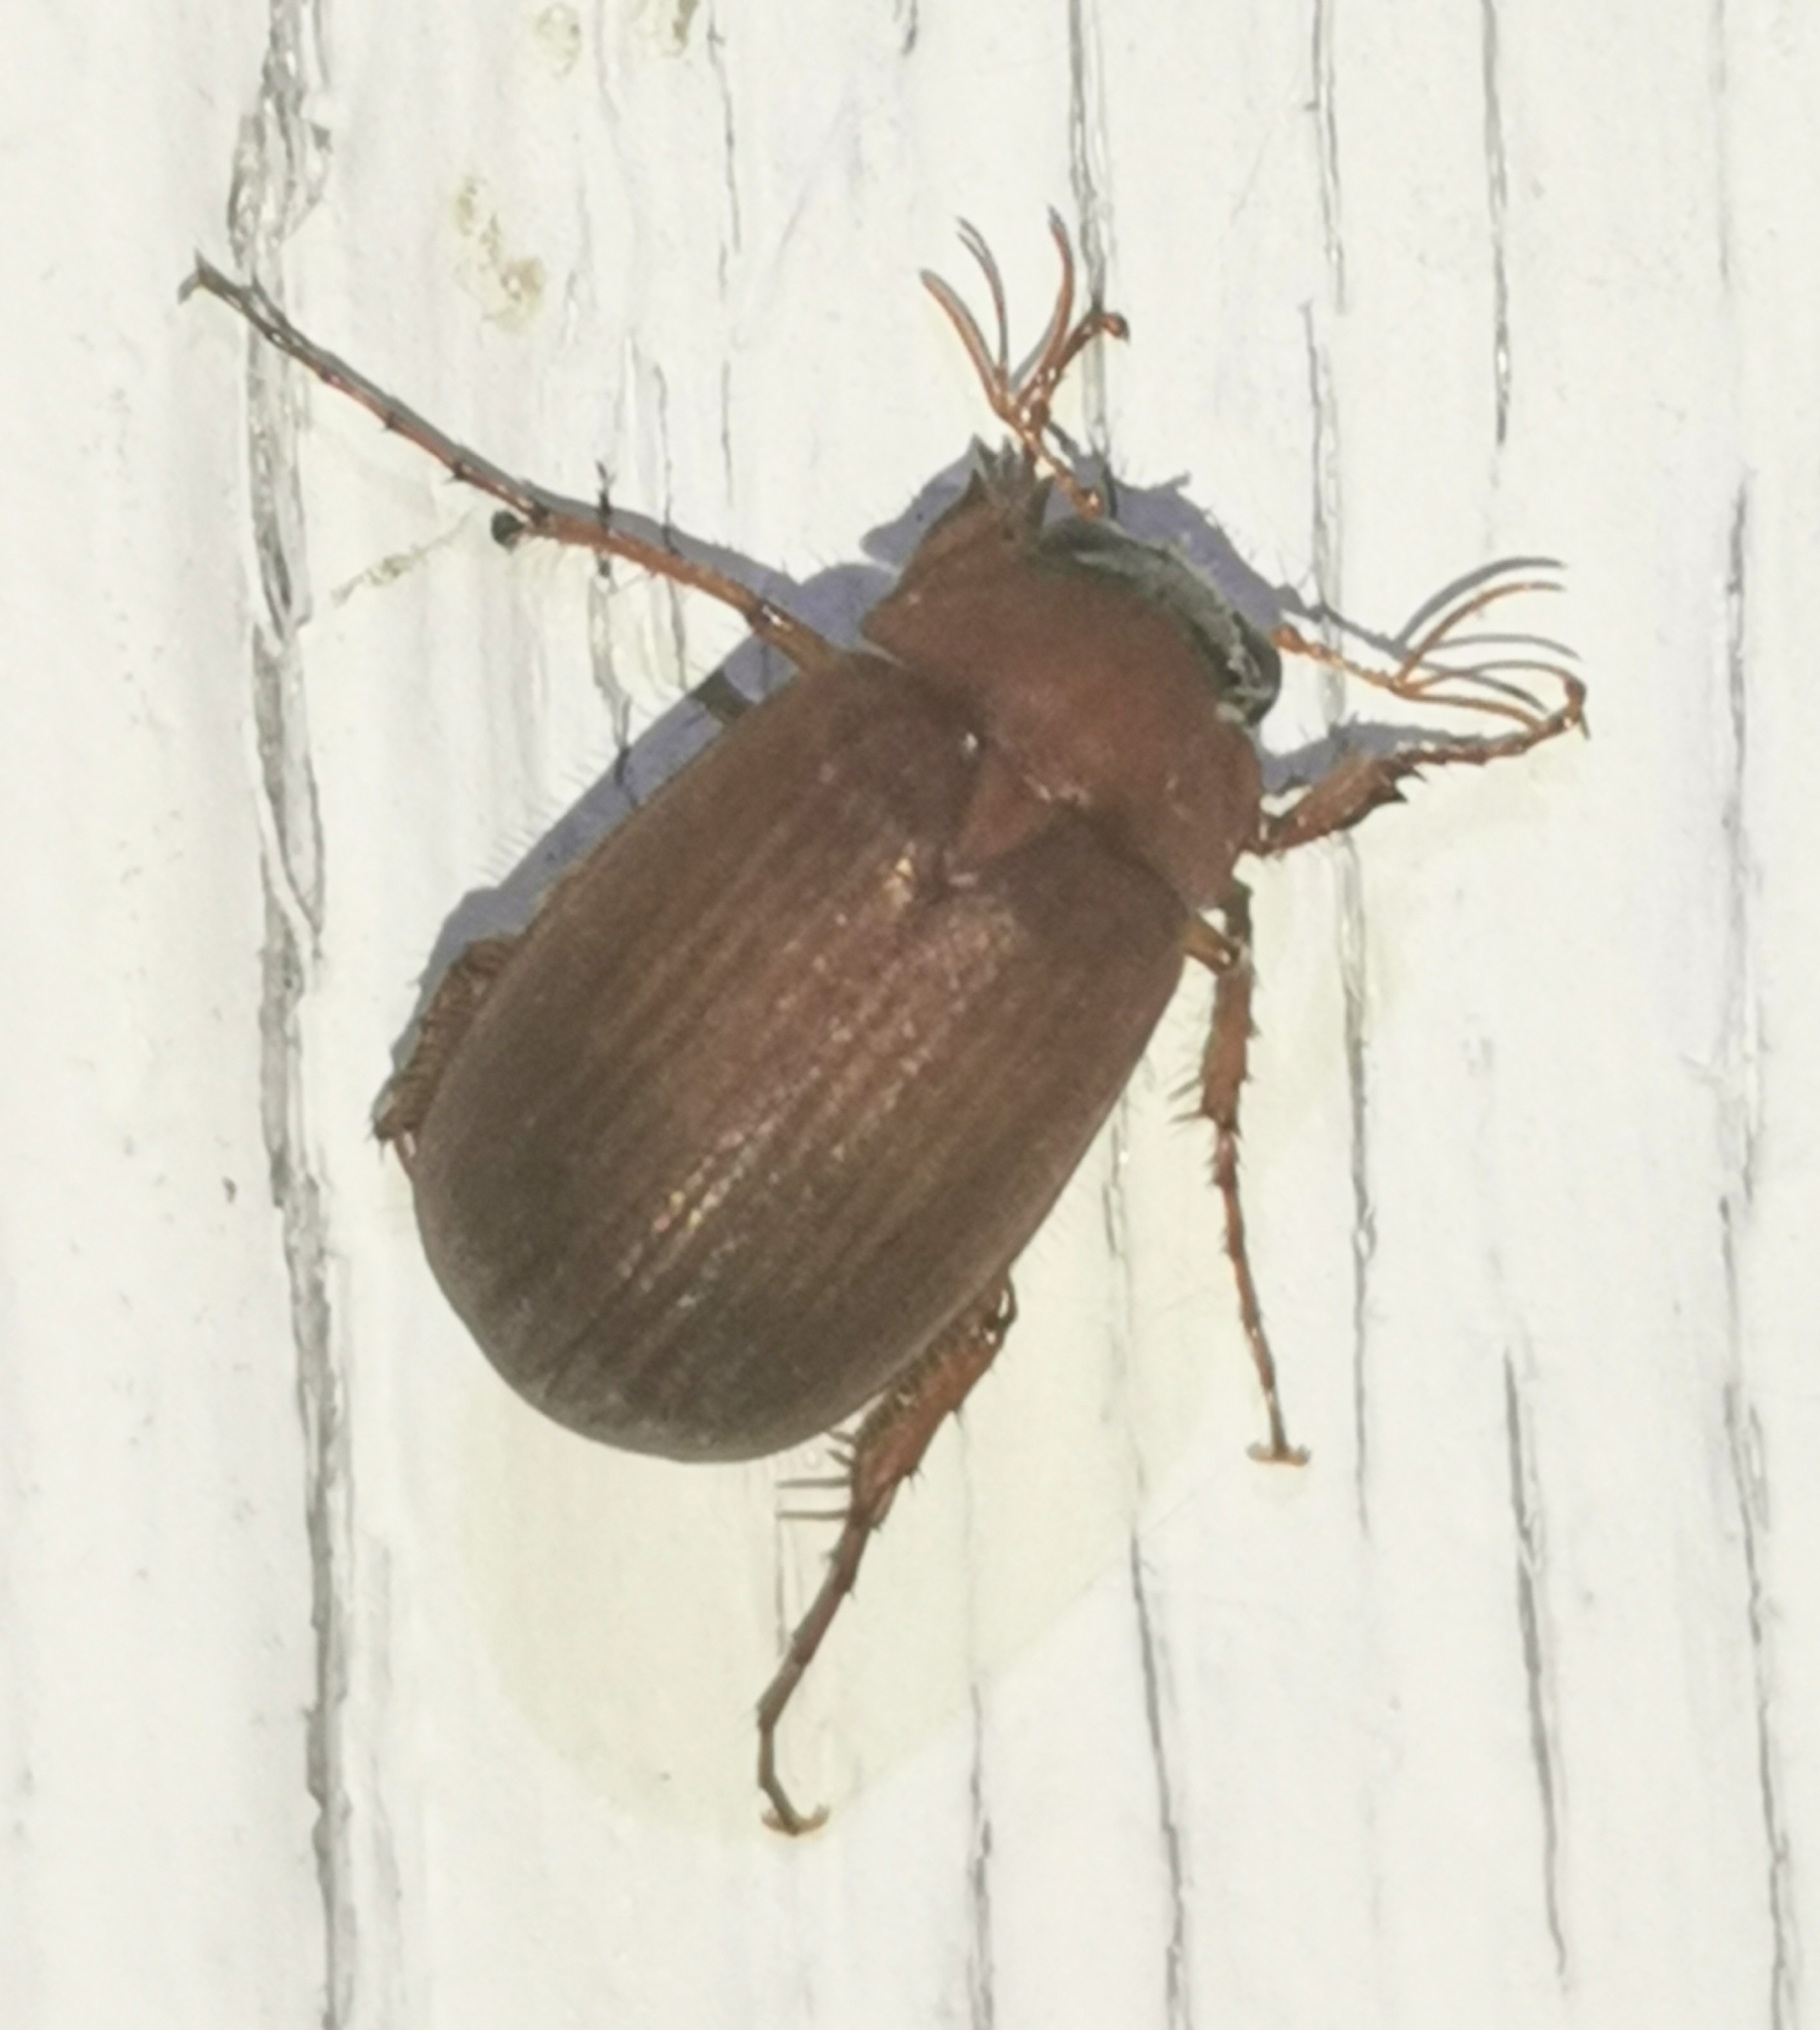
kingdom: Animalia
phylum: Arthropoda
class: Insecta
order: Coleoptera
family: Scarabaeidae
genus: Serica
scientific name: Serica brunnea
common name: Brown chafer
